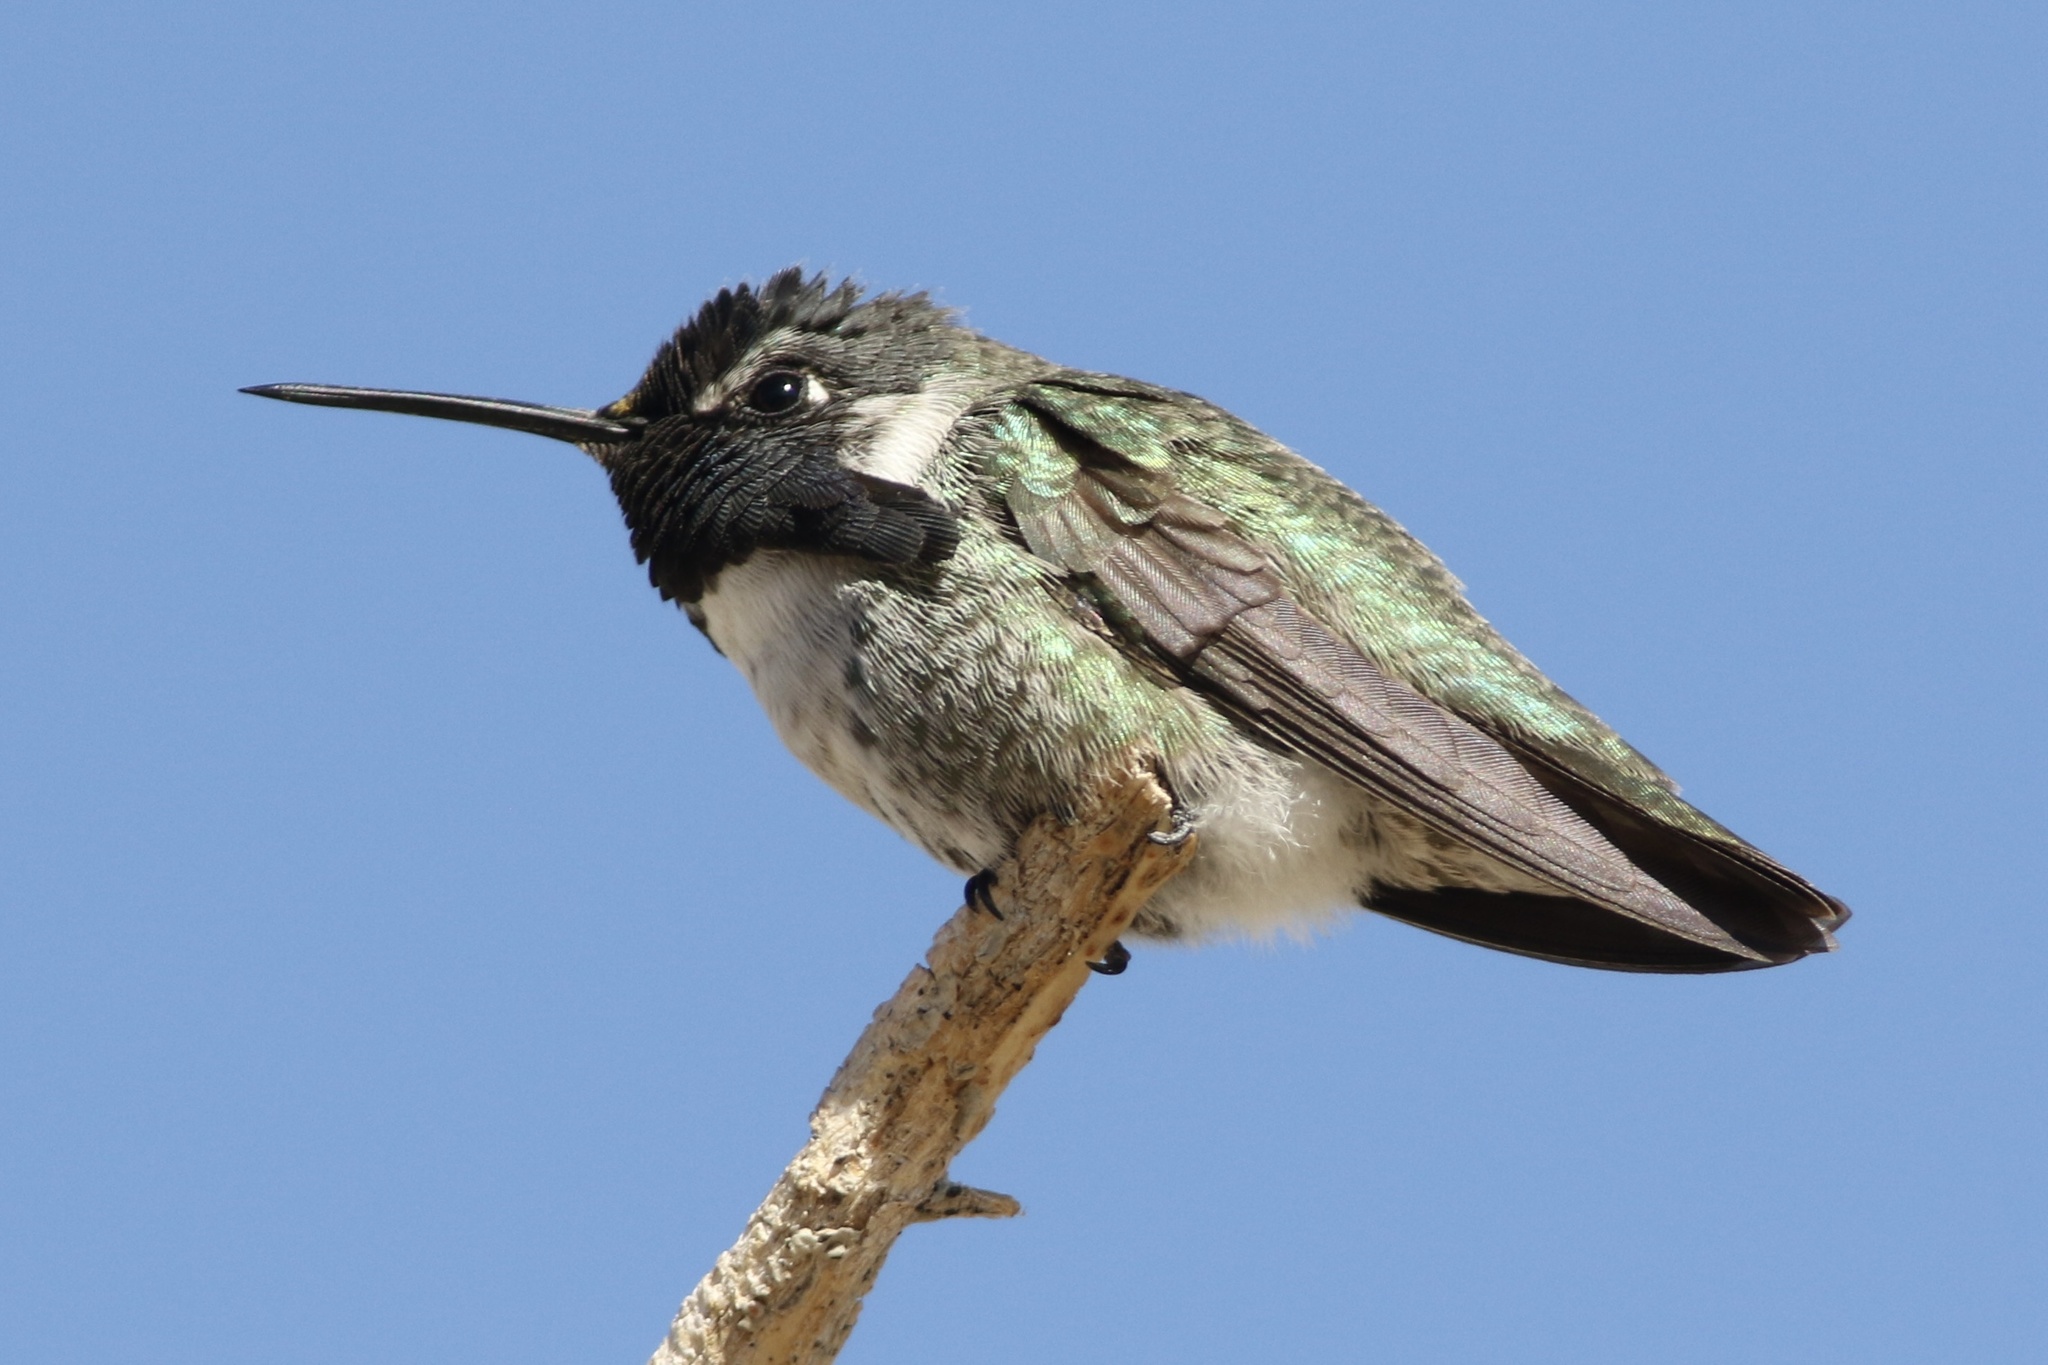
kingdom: Animalia
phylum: Chordata
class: Aves
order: Apodiformes
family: Trochilidae
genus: Calypte
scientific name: Calypte costae
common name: Costa's hummingbird
